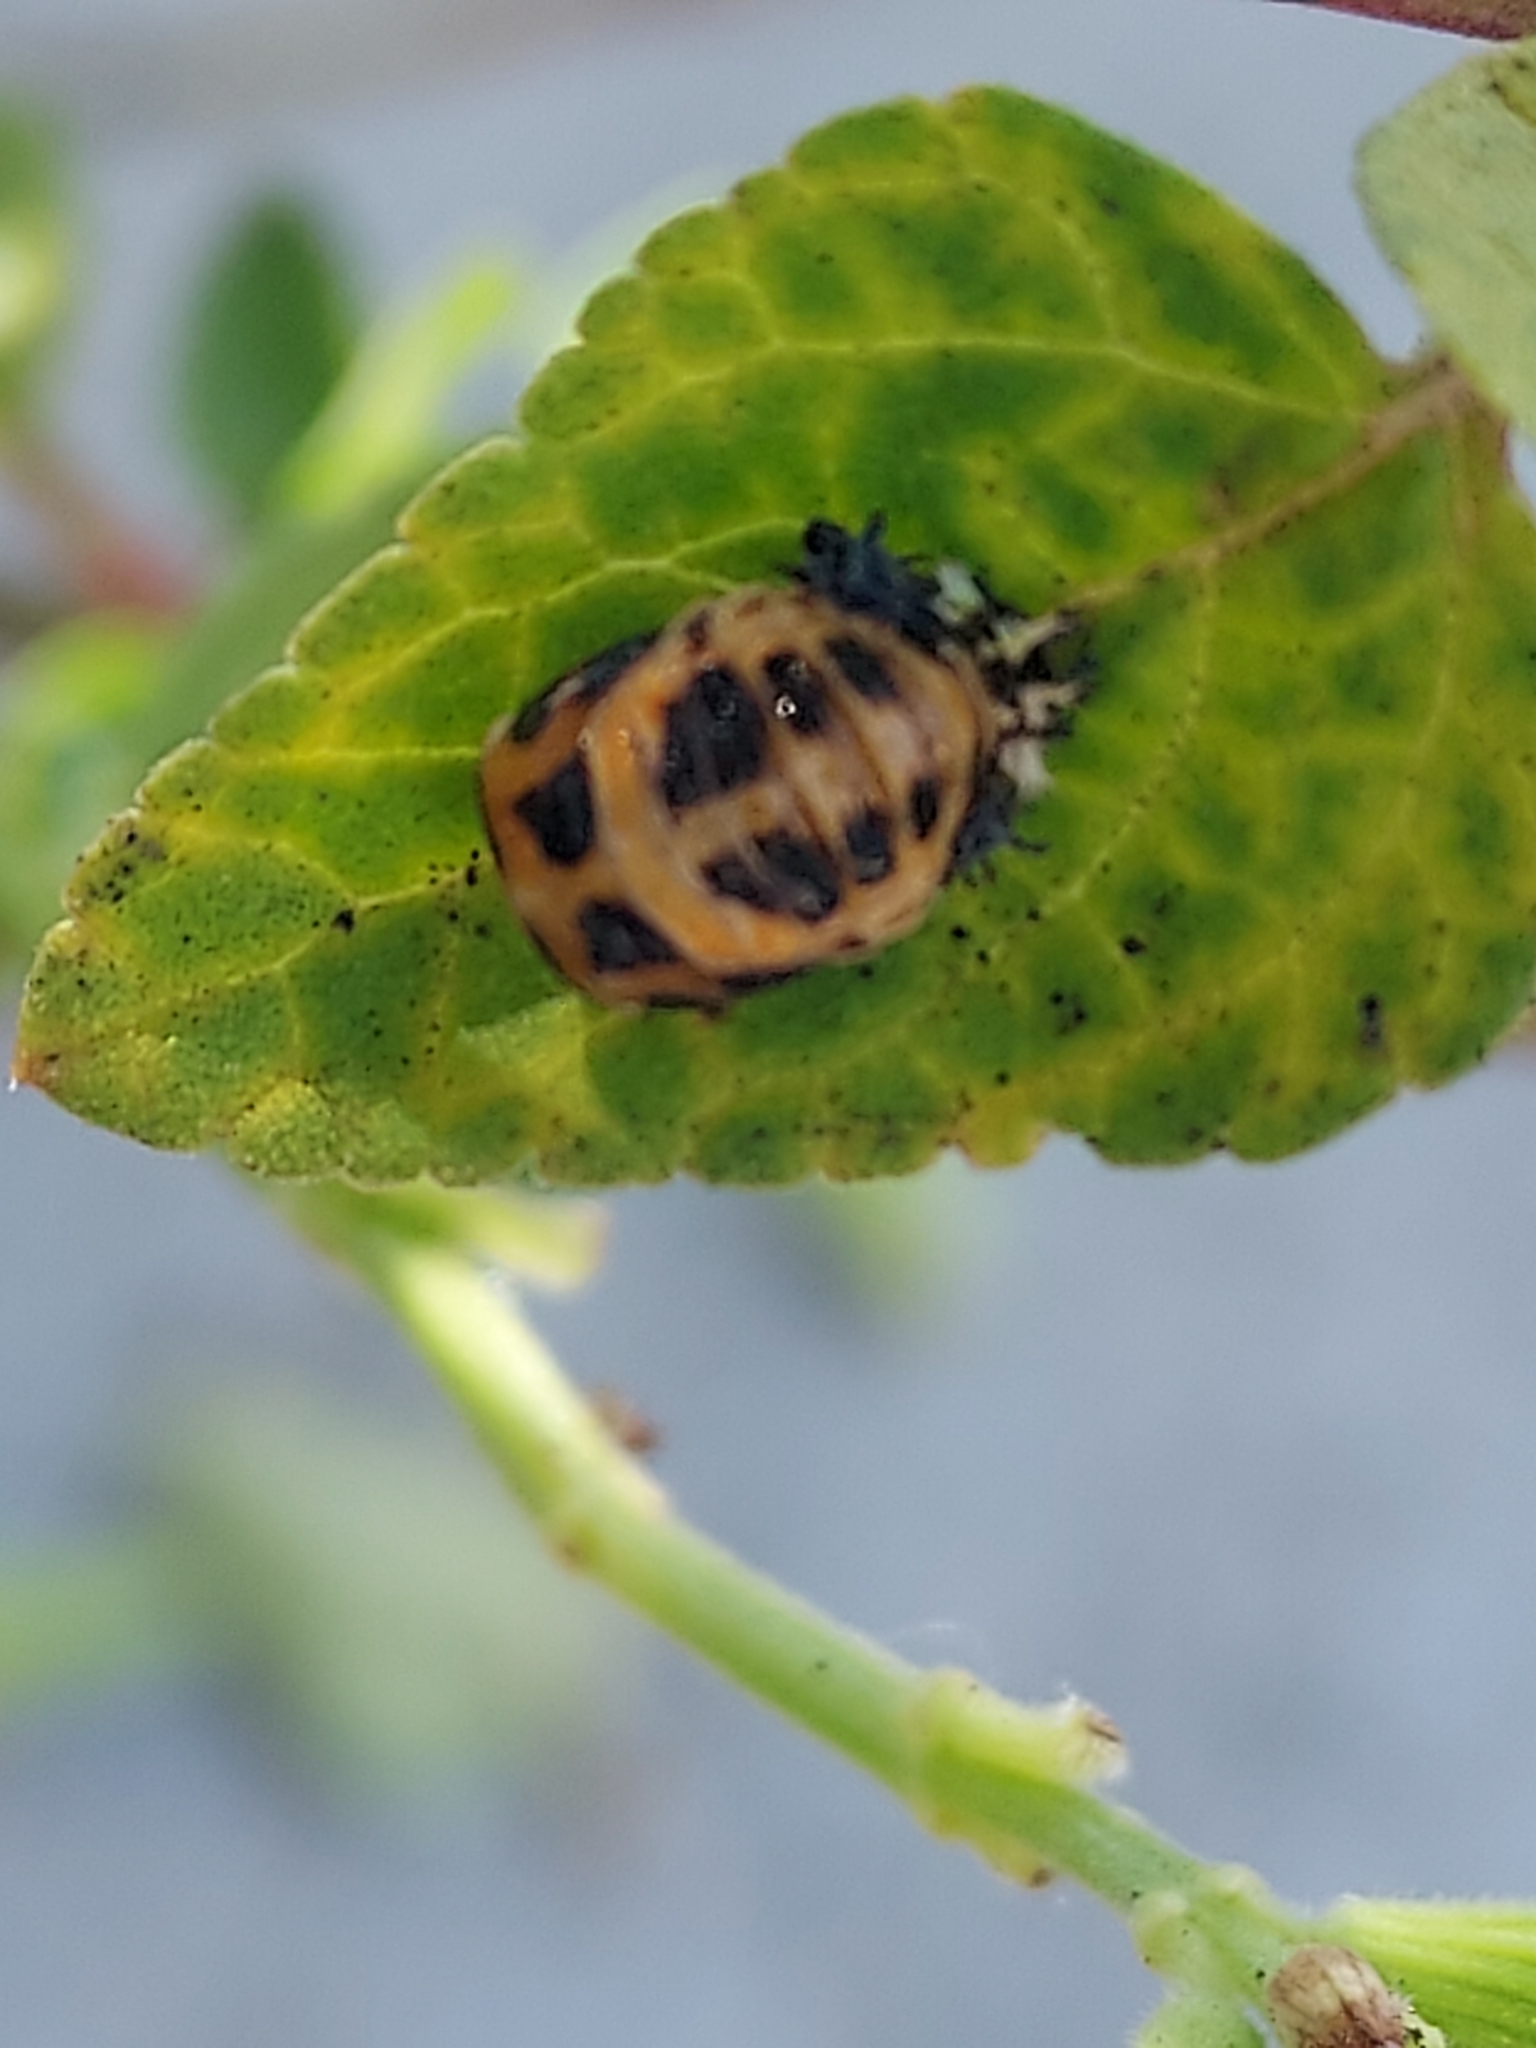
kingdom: Animalia
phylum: Arthropoda
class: Insecta
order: Coleoptera
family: Coccinellidae
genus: Harmonia
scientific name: Harmonia axyridis
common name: Harlequin ladybird
